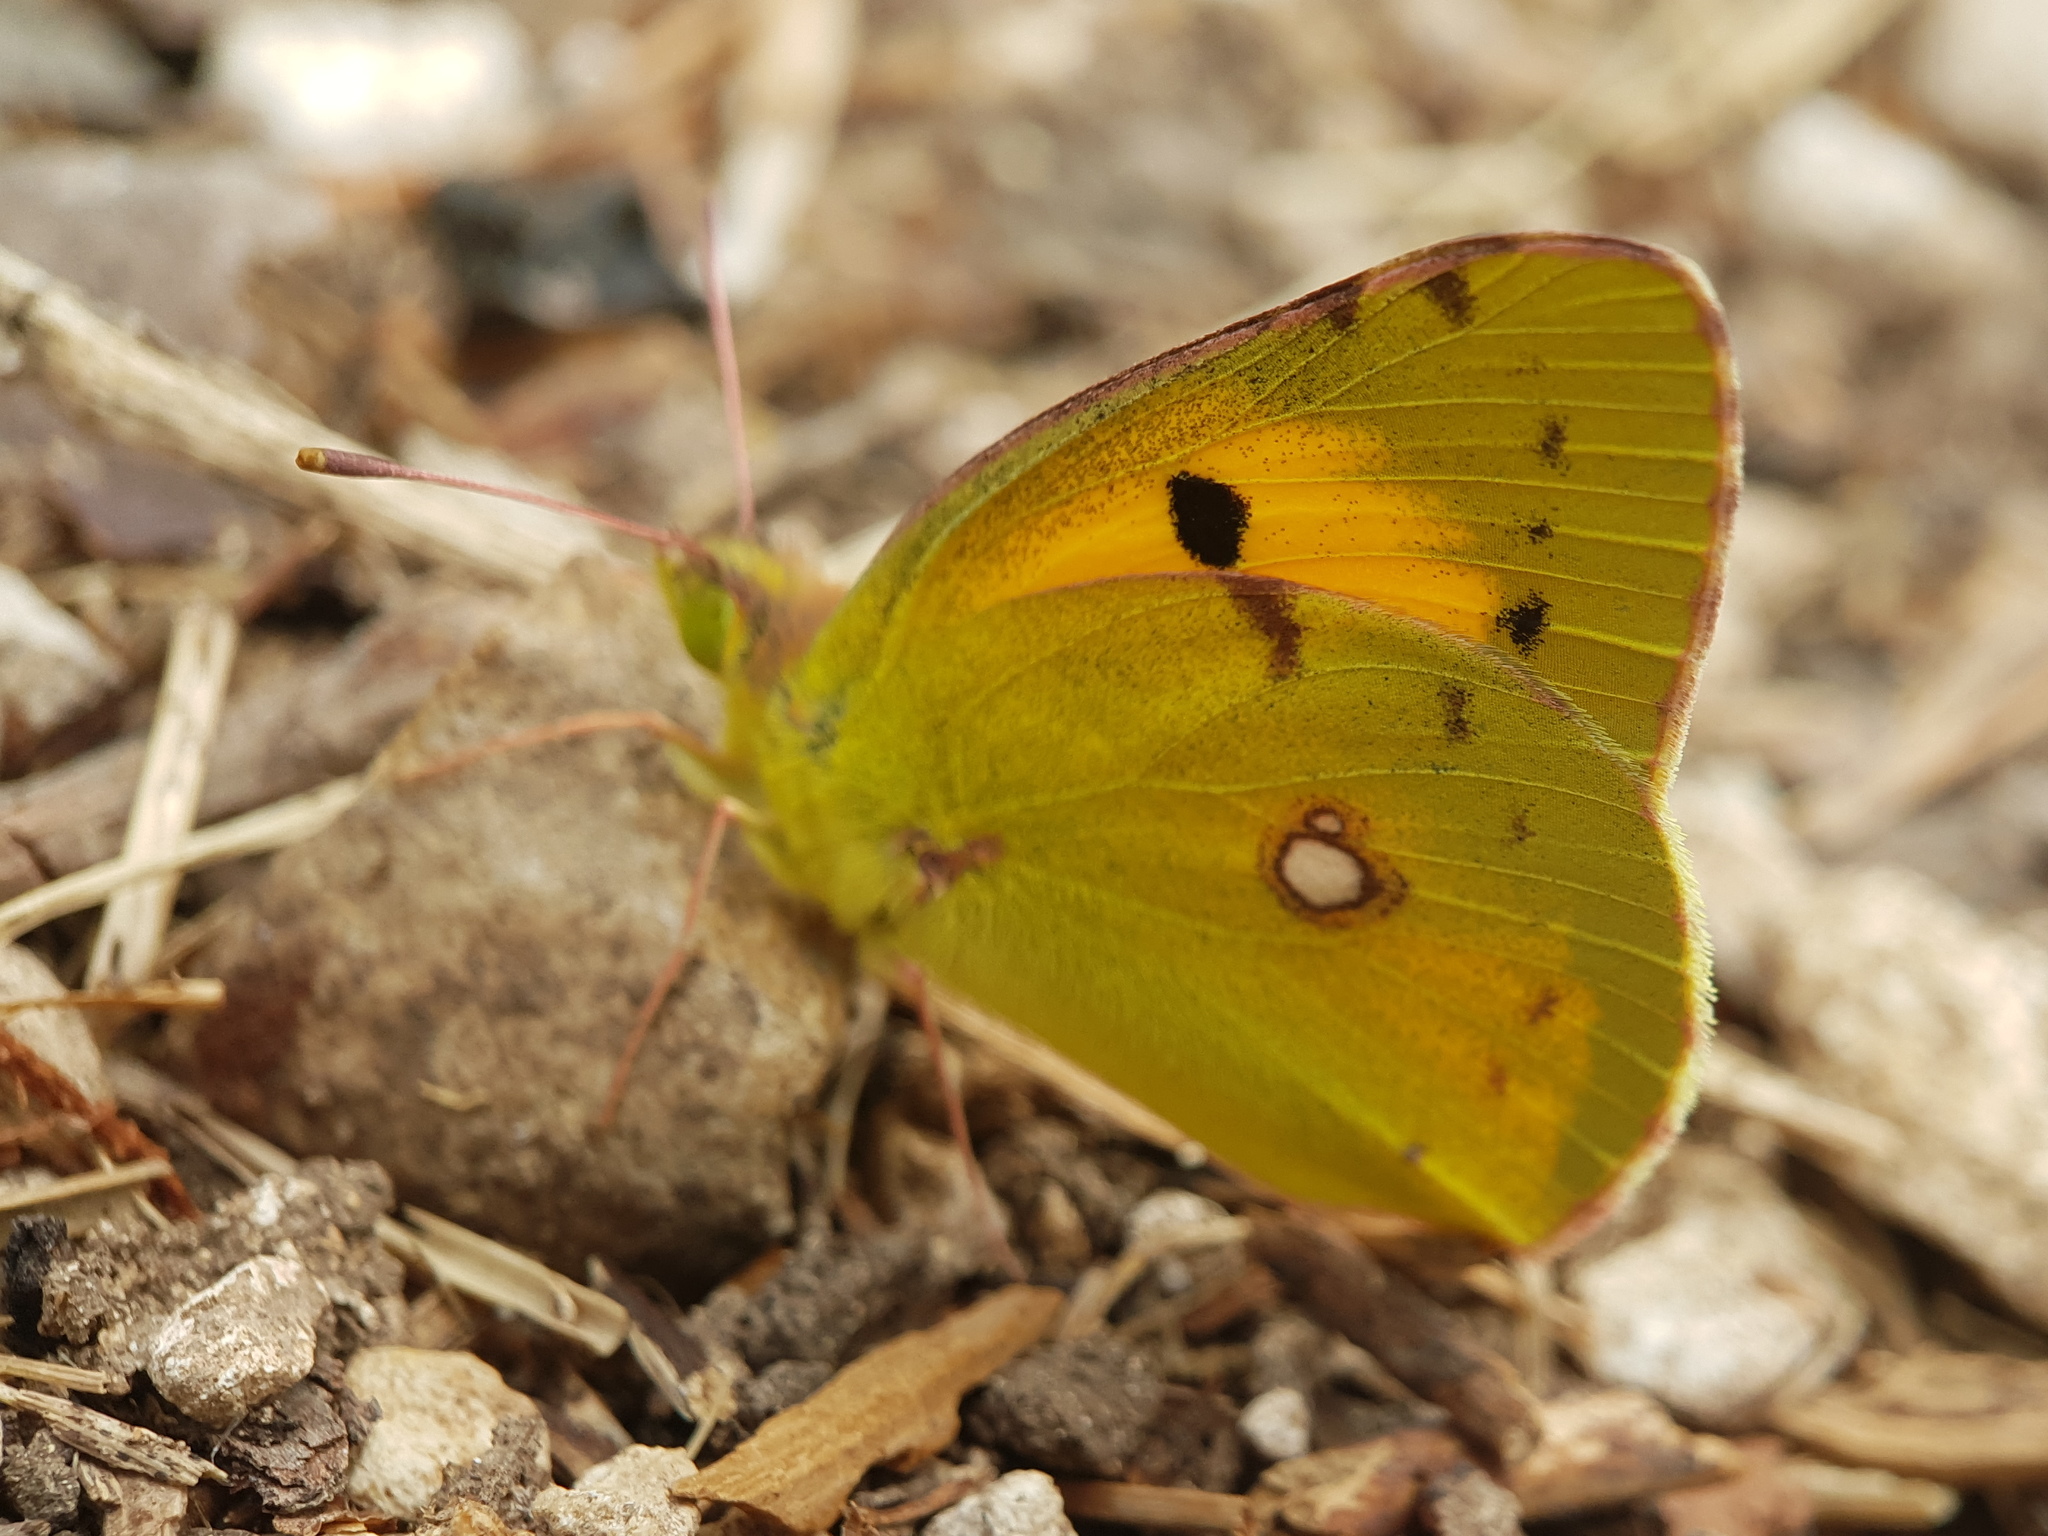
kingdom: Animalia
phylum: Arthropoda
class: Insecta
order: Lepidoptera
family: Pieridae
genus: Colias
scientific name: Colias croceus
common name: Clouded yellow
